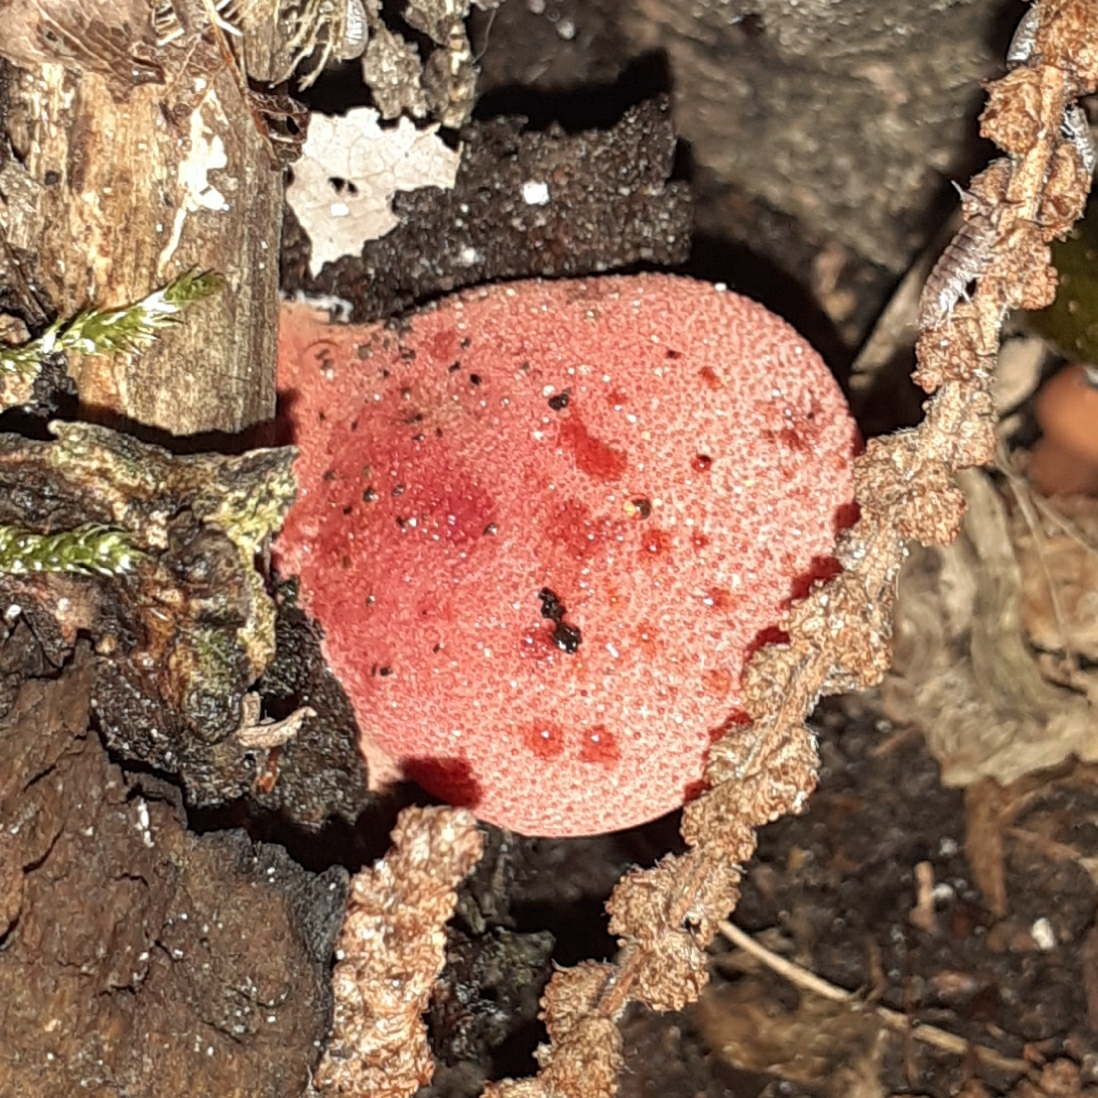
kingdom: Fungi
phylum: Basidiomycota
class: Agaricomycetes
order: Agaricales
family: Fistulinaceae
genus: Fistulina
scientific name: Fistulina hepatica
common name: Beef-steak fungus
